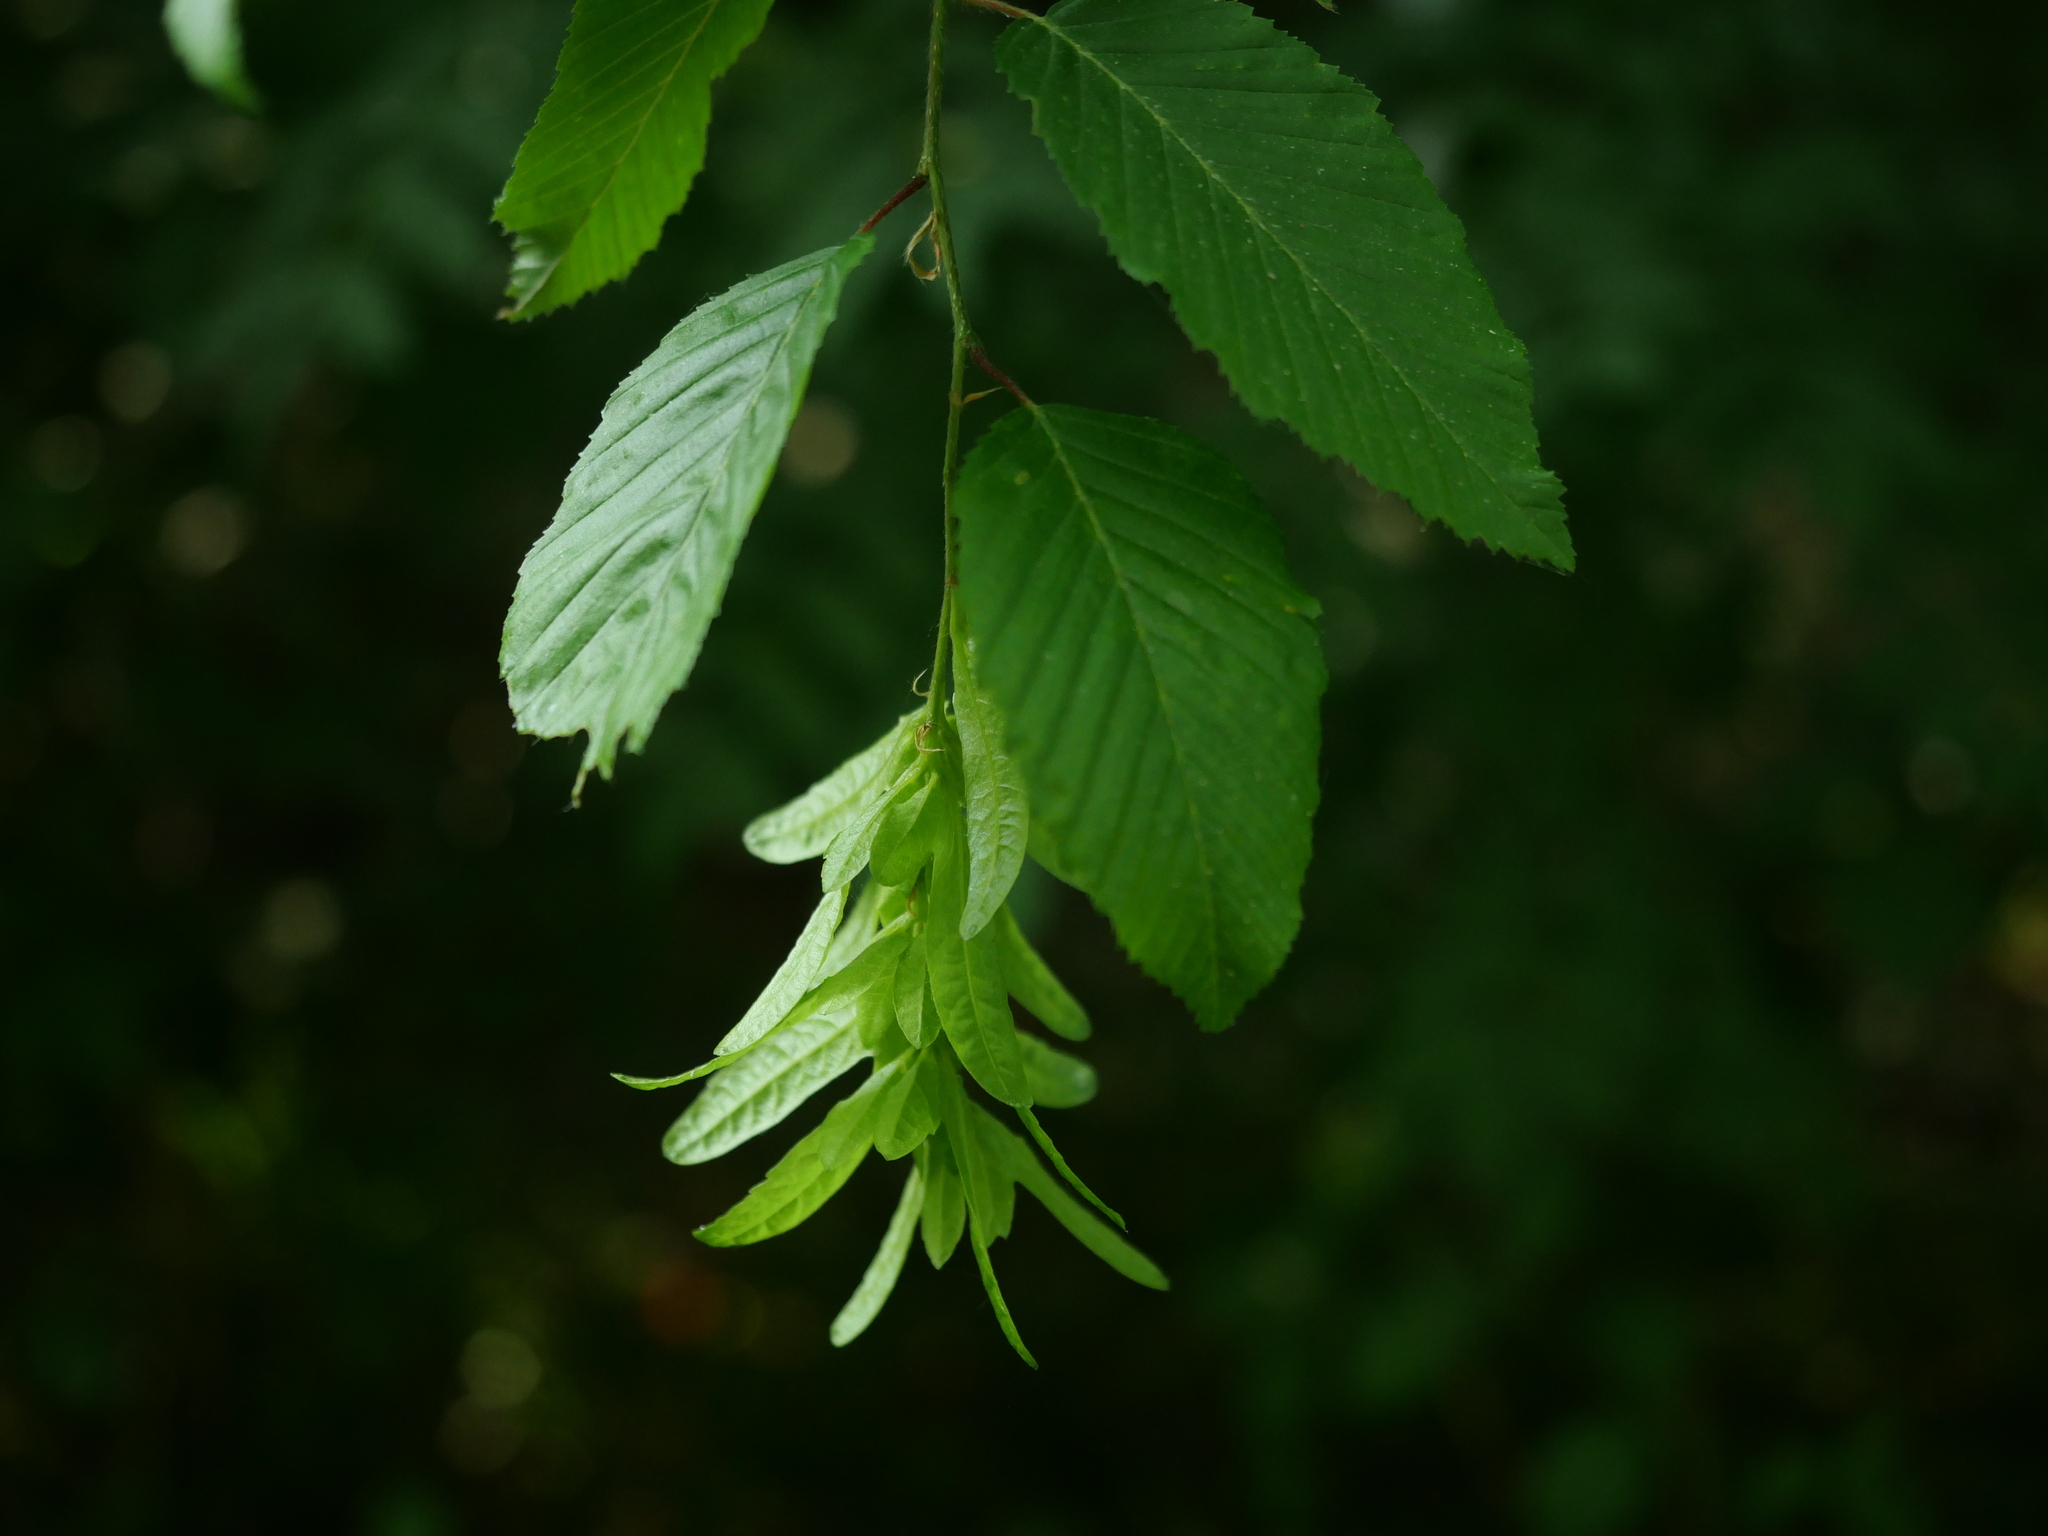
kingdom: Plantae
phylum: Tracheophyta
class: Magnoliopsida
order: Fagales
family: Betulaceae
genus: Carpinus
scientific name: Carpinus betulus
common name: Hornbeam
